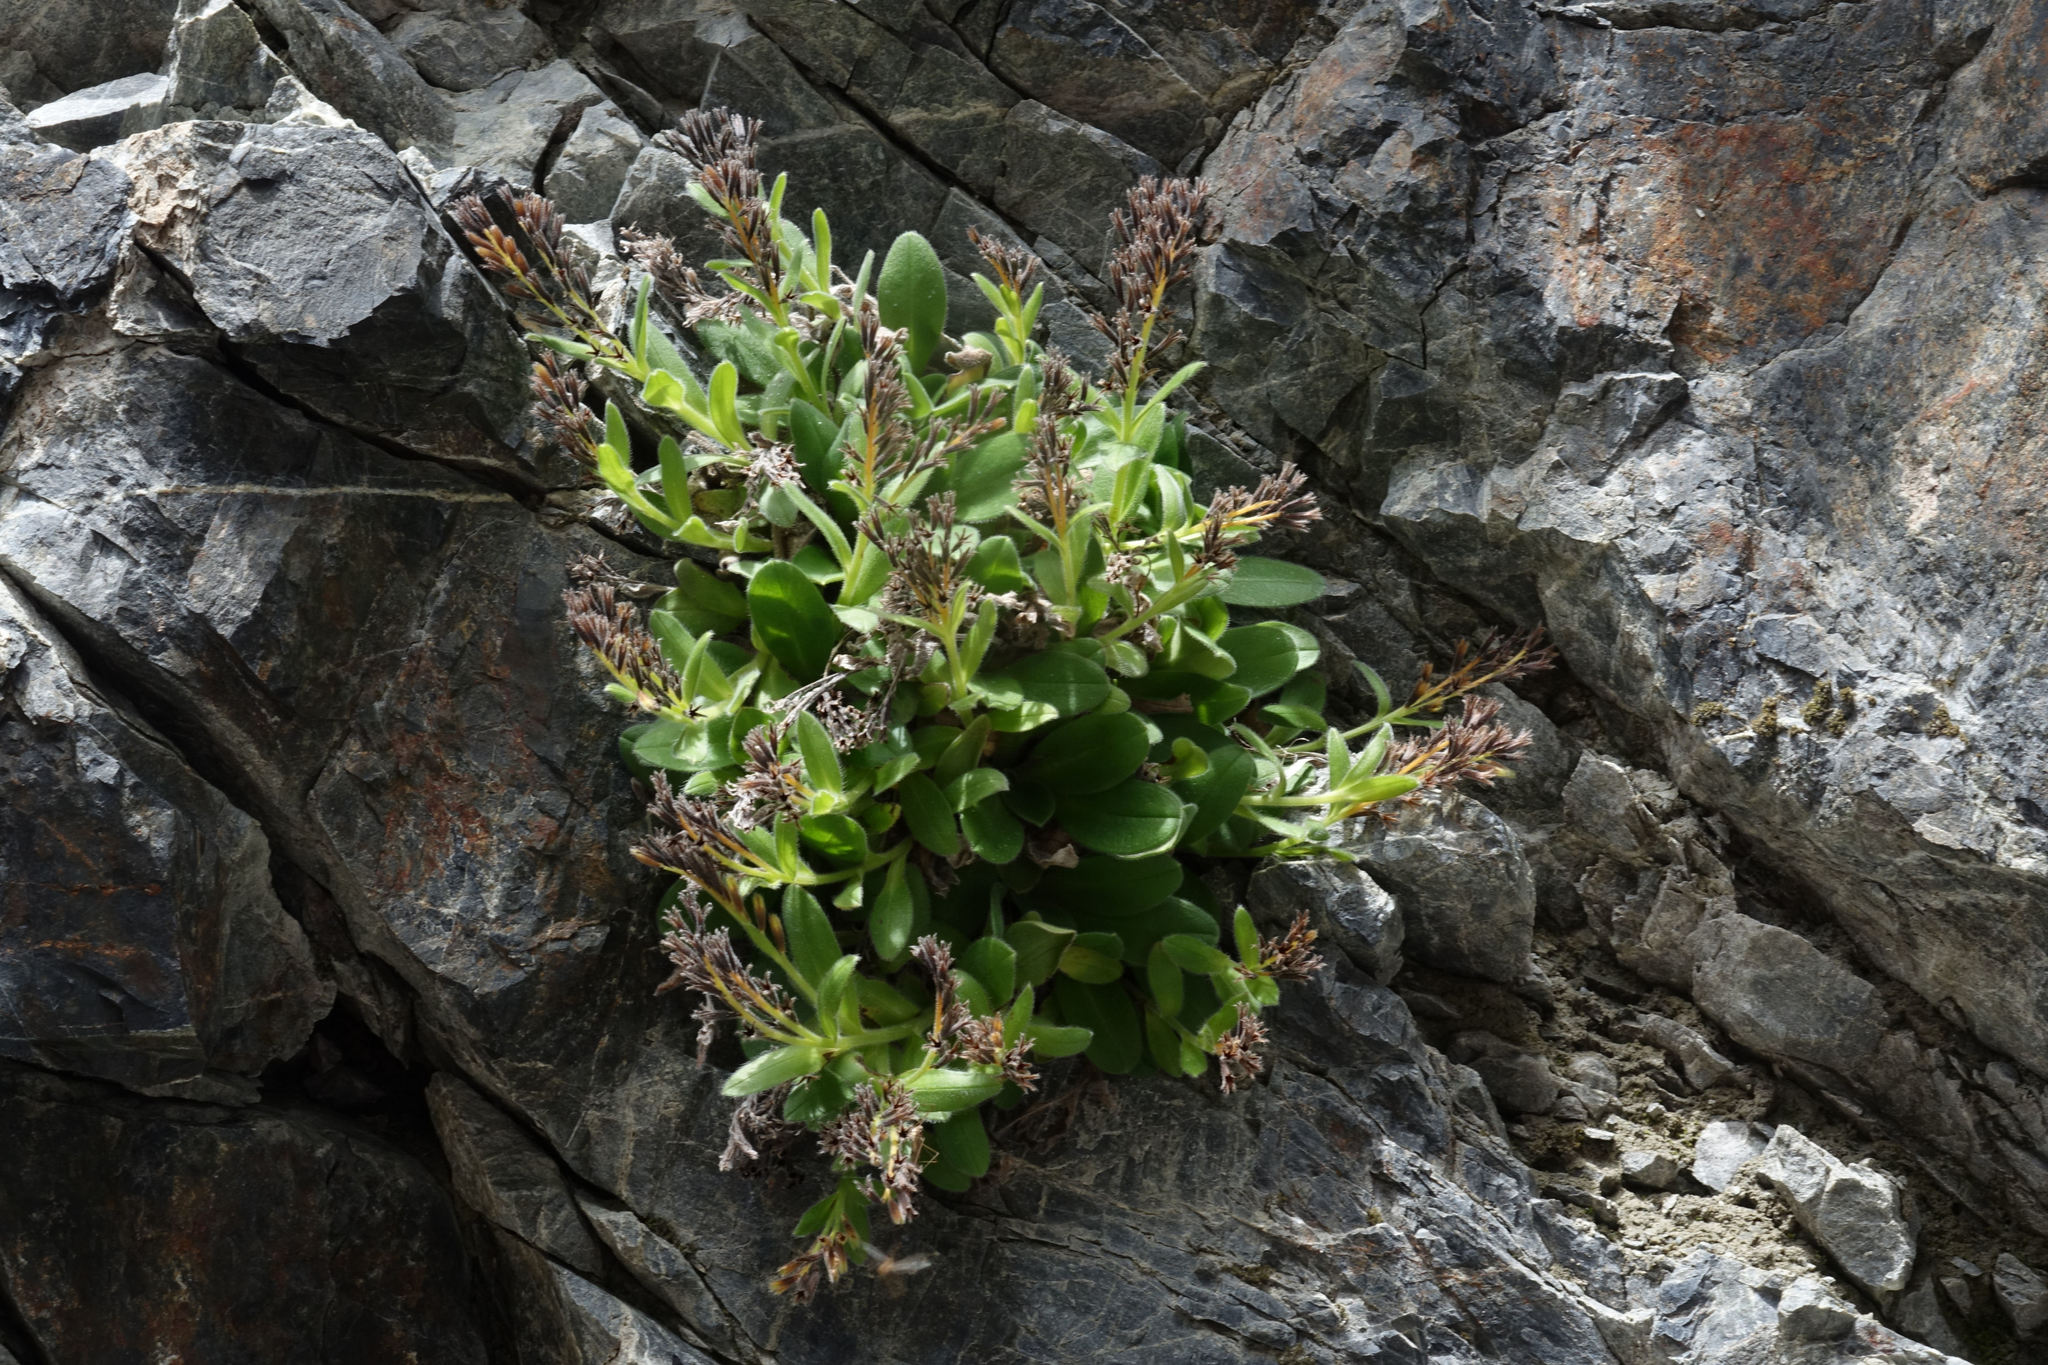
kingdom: Plantae
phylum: Tracheophyta
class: Magnoliopsida
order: Boraginales
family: Boraginaceae
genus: Myosotis
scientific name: Myosotis suavis
